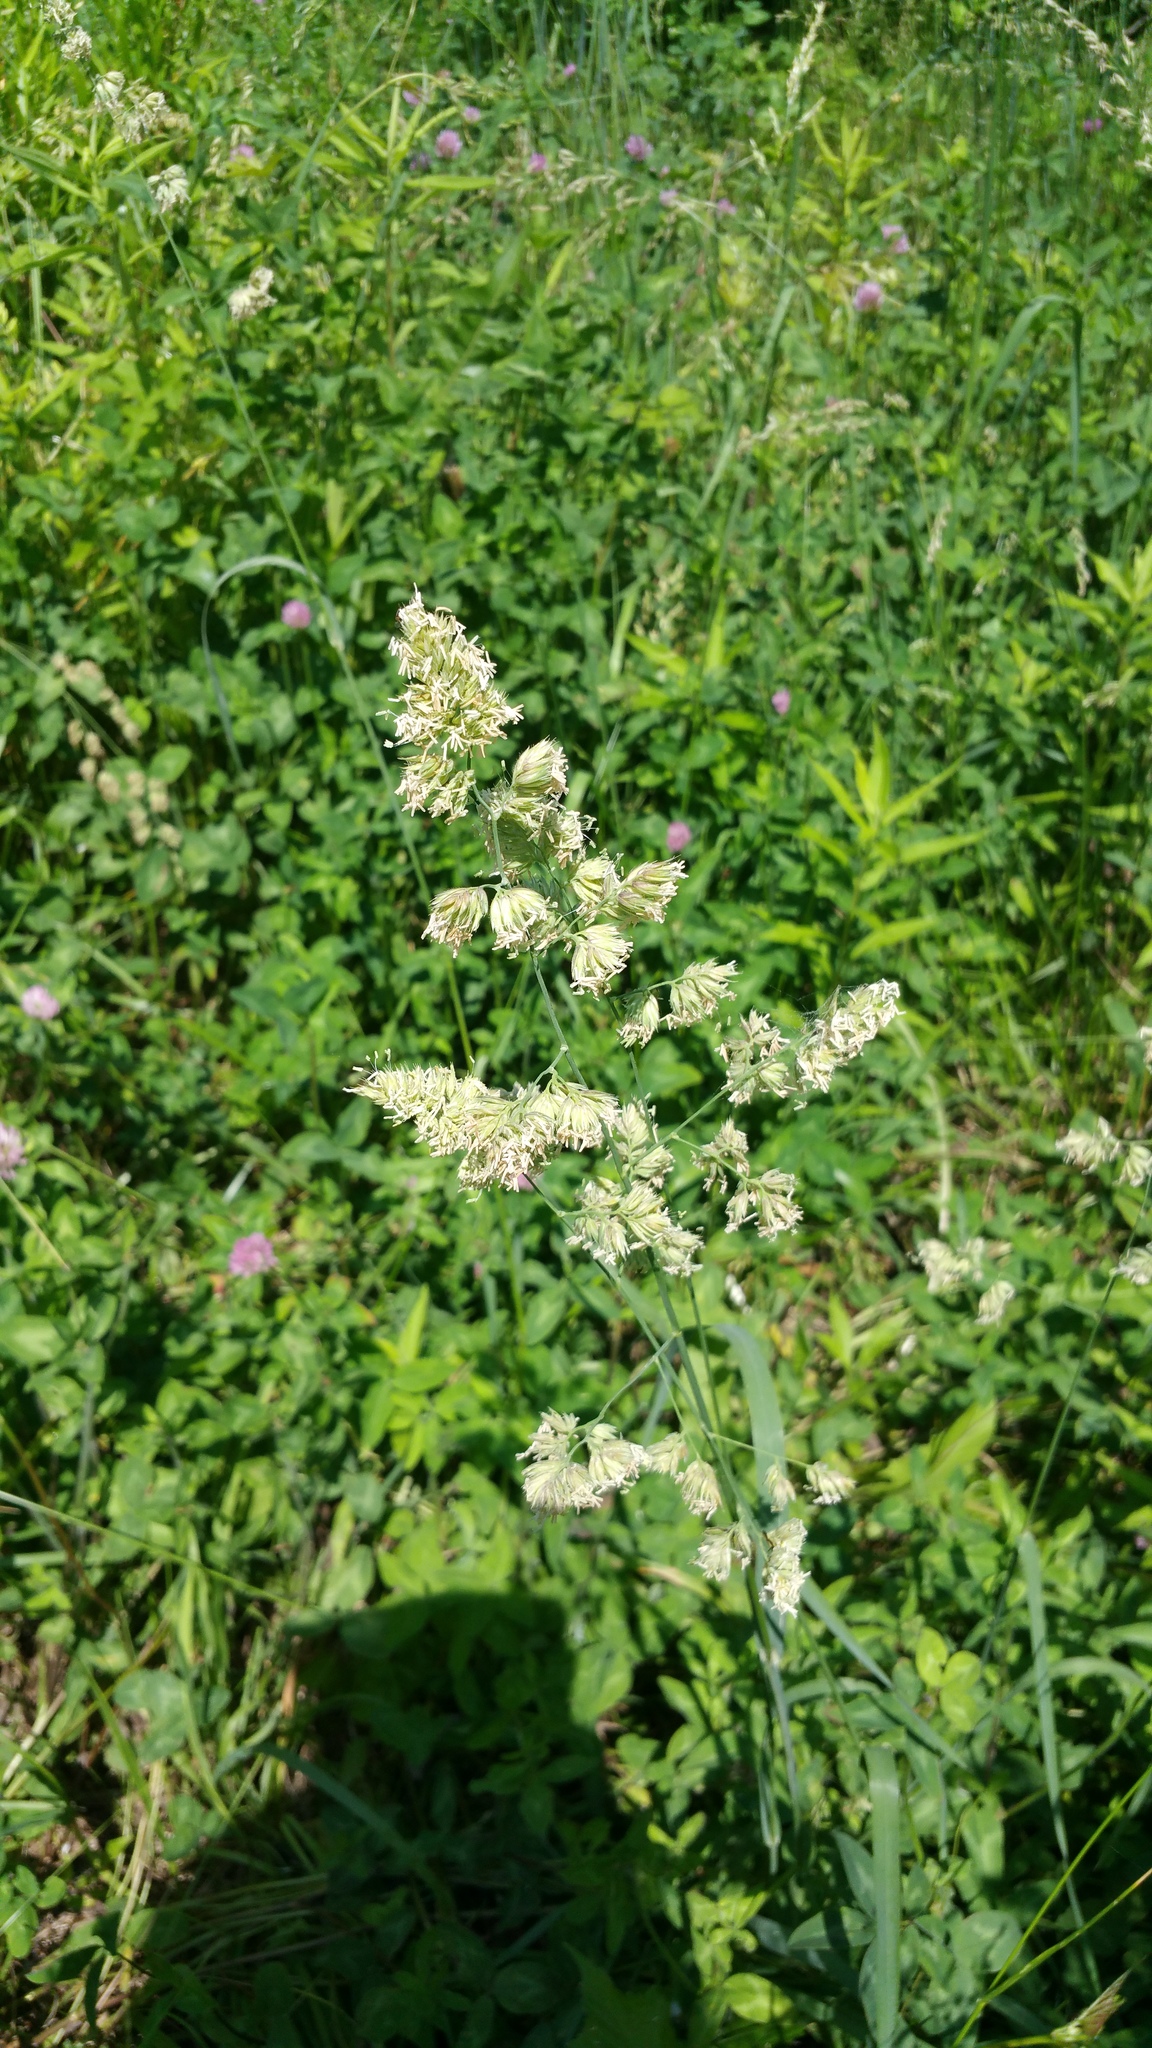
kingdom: Plantae
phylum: Tracheophyta
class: Liliopsida
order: Poales
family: Poaceae
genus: Dactylis
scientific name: Dactylis glomerata
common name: Orchardgrass
